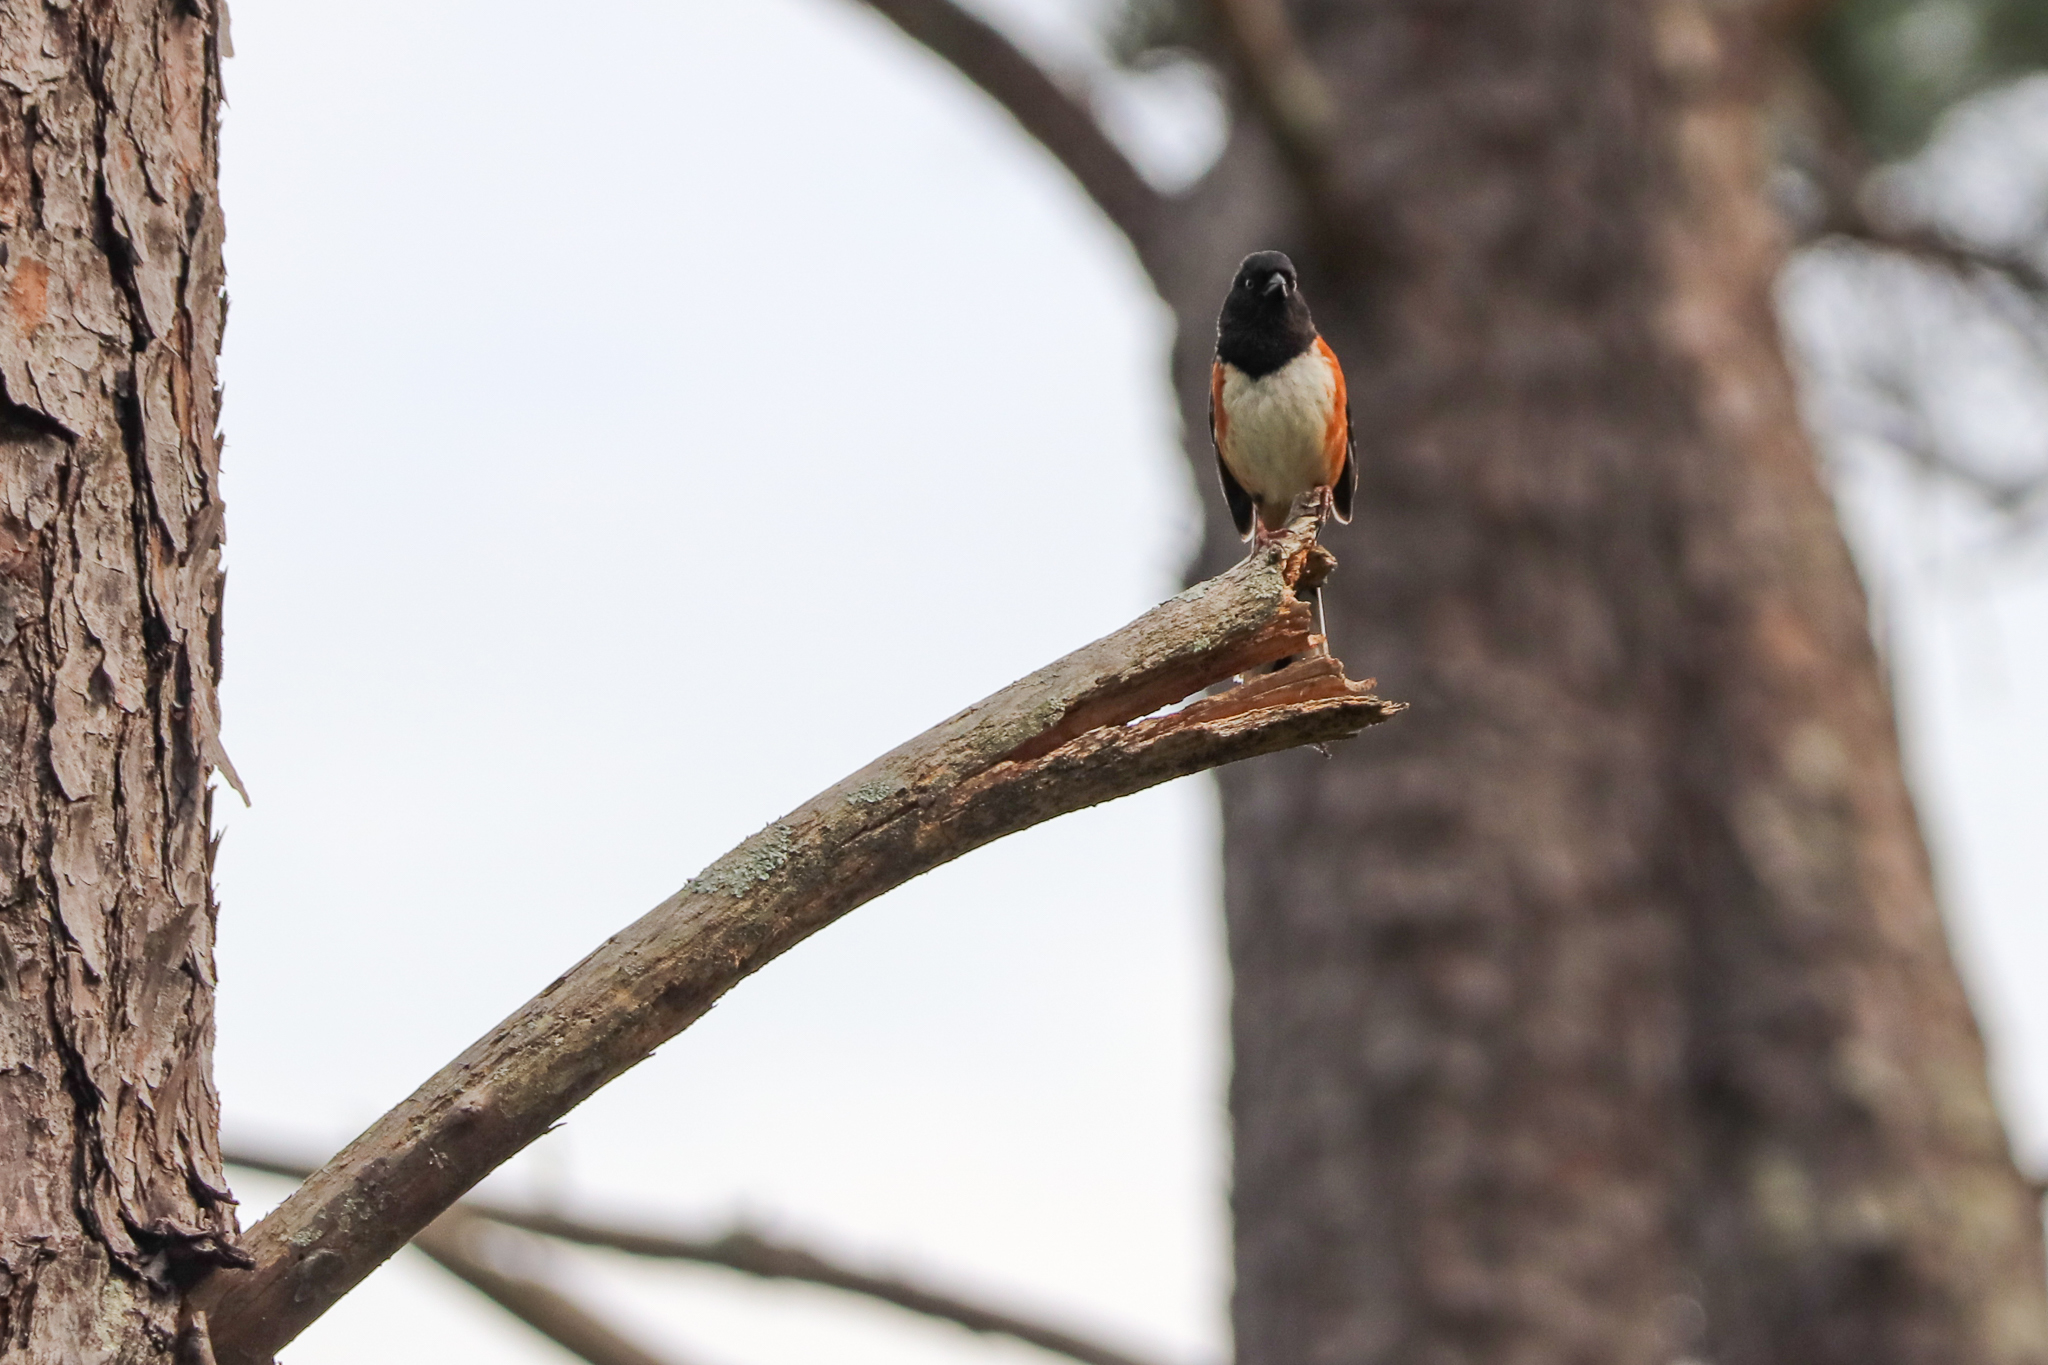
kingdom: Animalia
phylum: Chordata
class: Aves
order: Passeriformes
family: Passerellidae
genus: Pipilo
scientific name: Pipilo erythrophthalmus
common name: Eastern towhee
